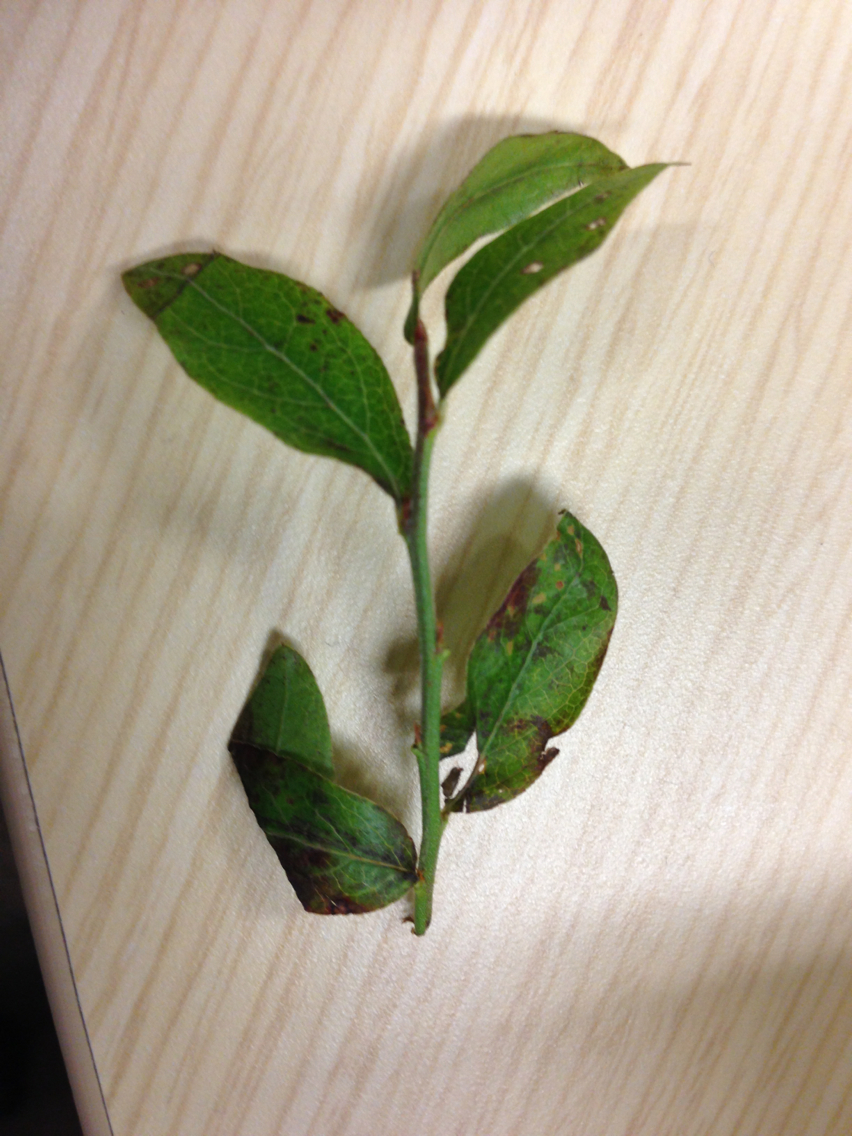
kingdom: Plantae
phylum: Tracheophyta
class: Magnoliopsida
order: Ericales
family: Ericaceae
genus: Vaccinium
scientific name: Vaccinium myrtilloides
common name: Canada blueberry
